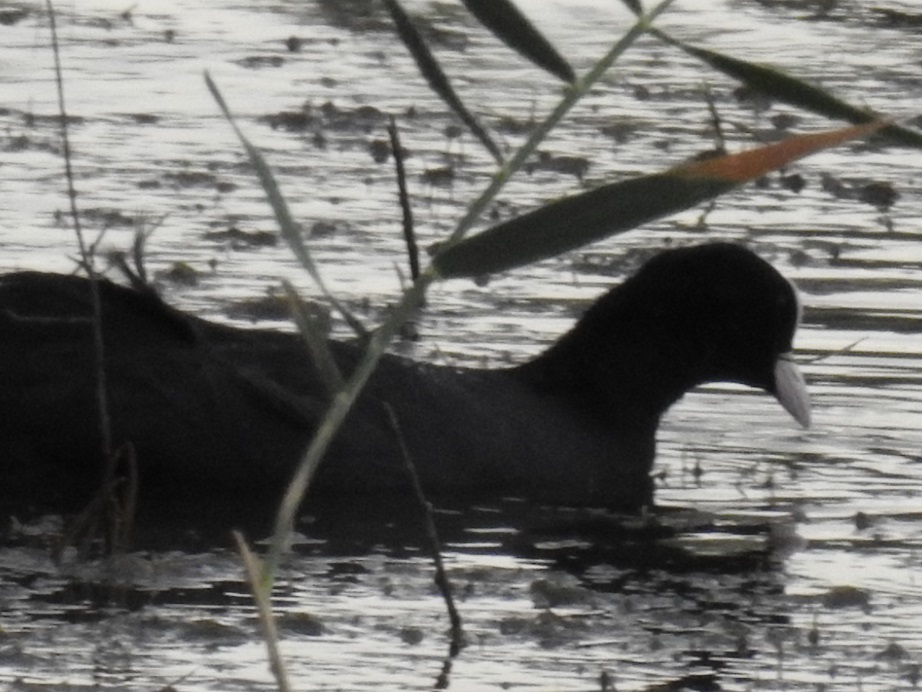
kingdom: Animalia
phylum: Chordata
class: Aves
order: Gruiformes
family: Rallidae
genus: Fulica
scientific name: Fulica atra
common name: Eurasian coot
